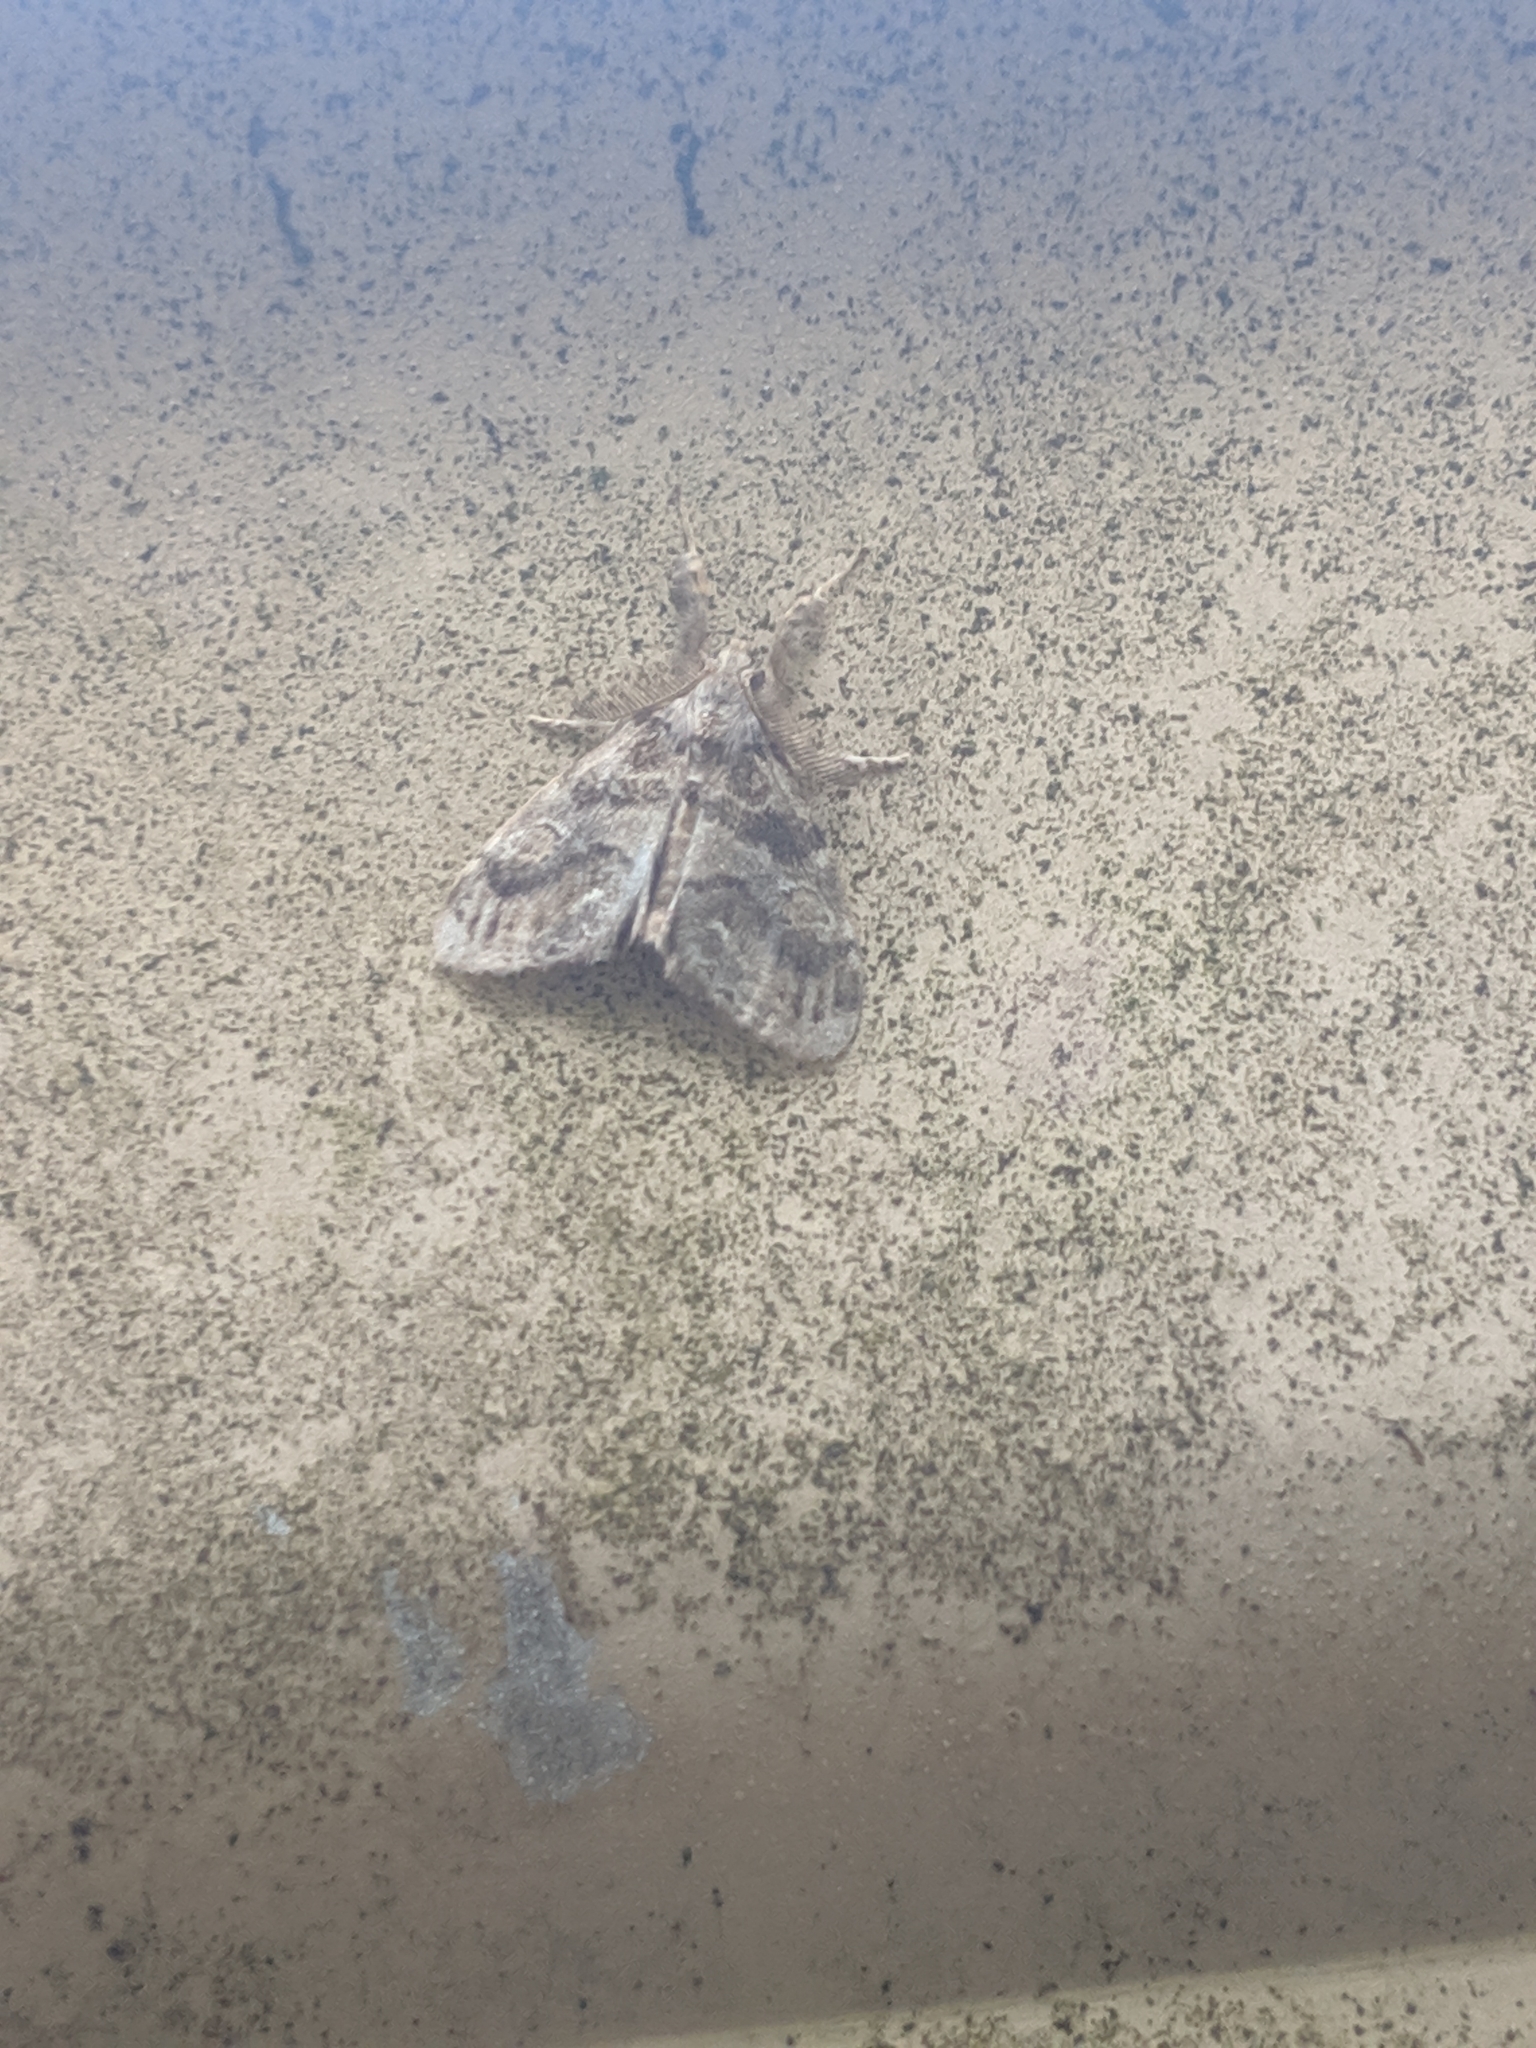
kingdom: Animalia
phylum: Arthropoda
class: Insecta
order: Lepidoptera
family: Erebidae
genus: Orgyia
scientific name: Orgyia definita
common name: Definite tussock moth
